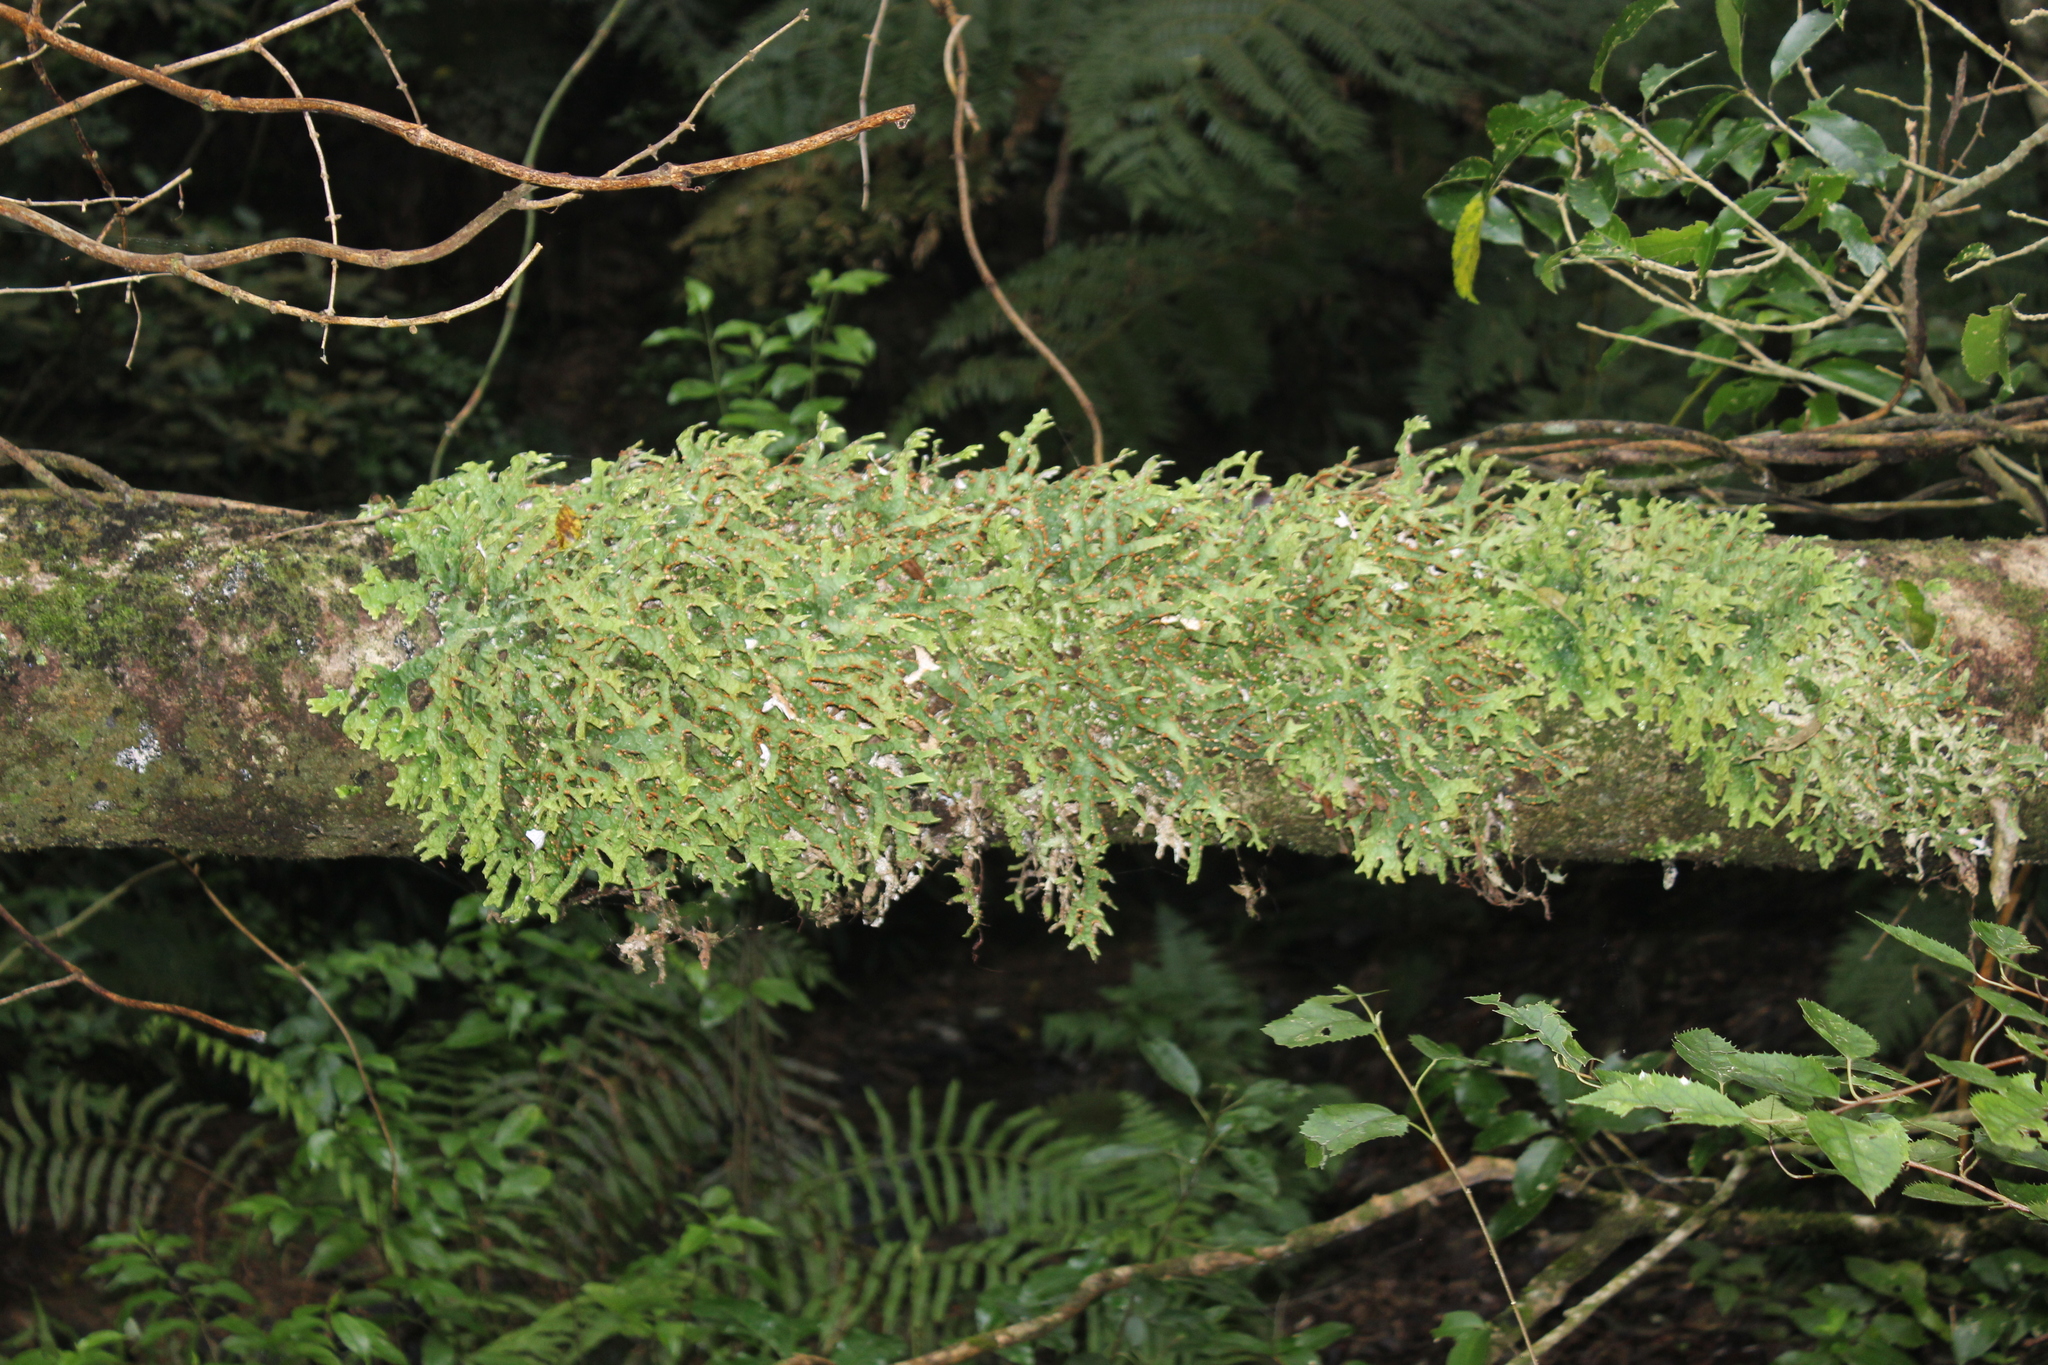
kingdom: Fungi
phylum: Ascomycota
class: Lecanoromycetes
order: Peltigerales
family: Lobariaceae
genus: Pseudocyphellaria
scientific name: Pseudocyphellaria rufovirescens
